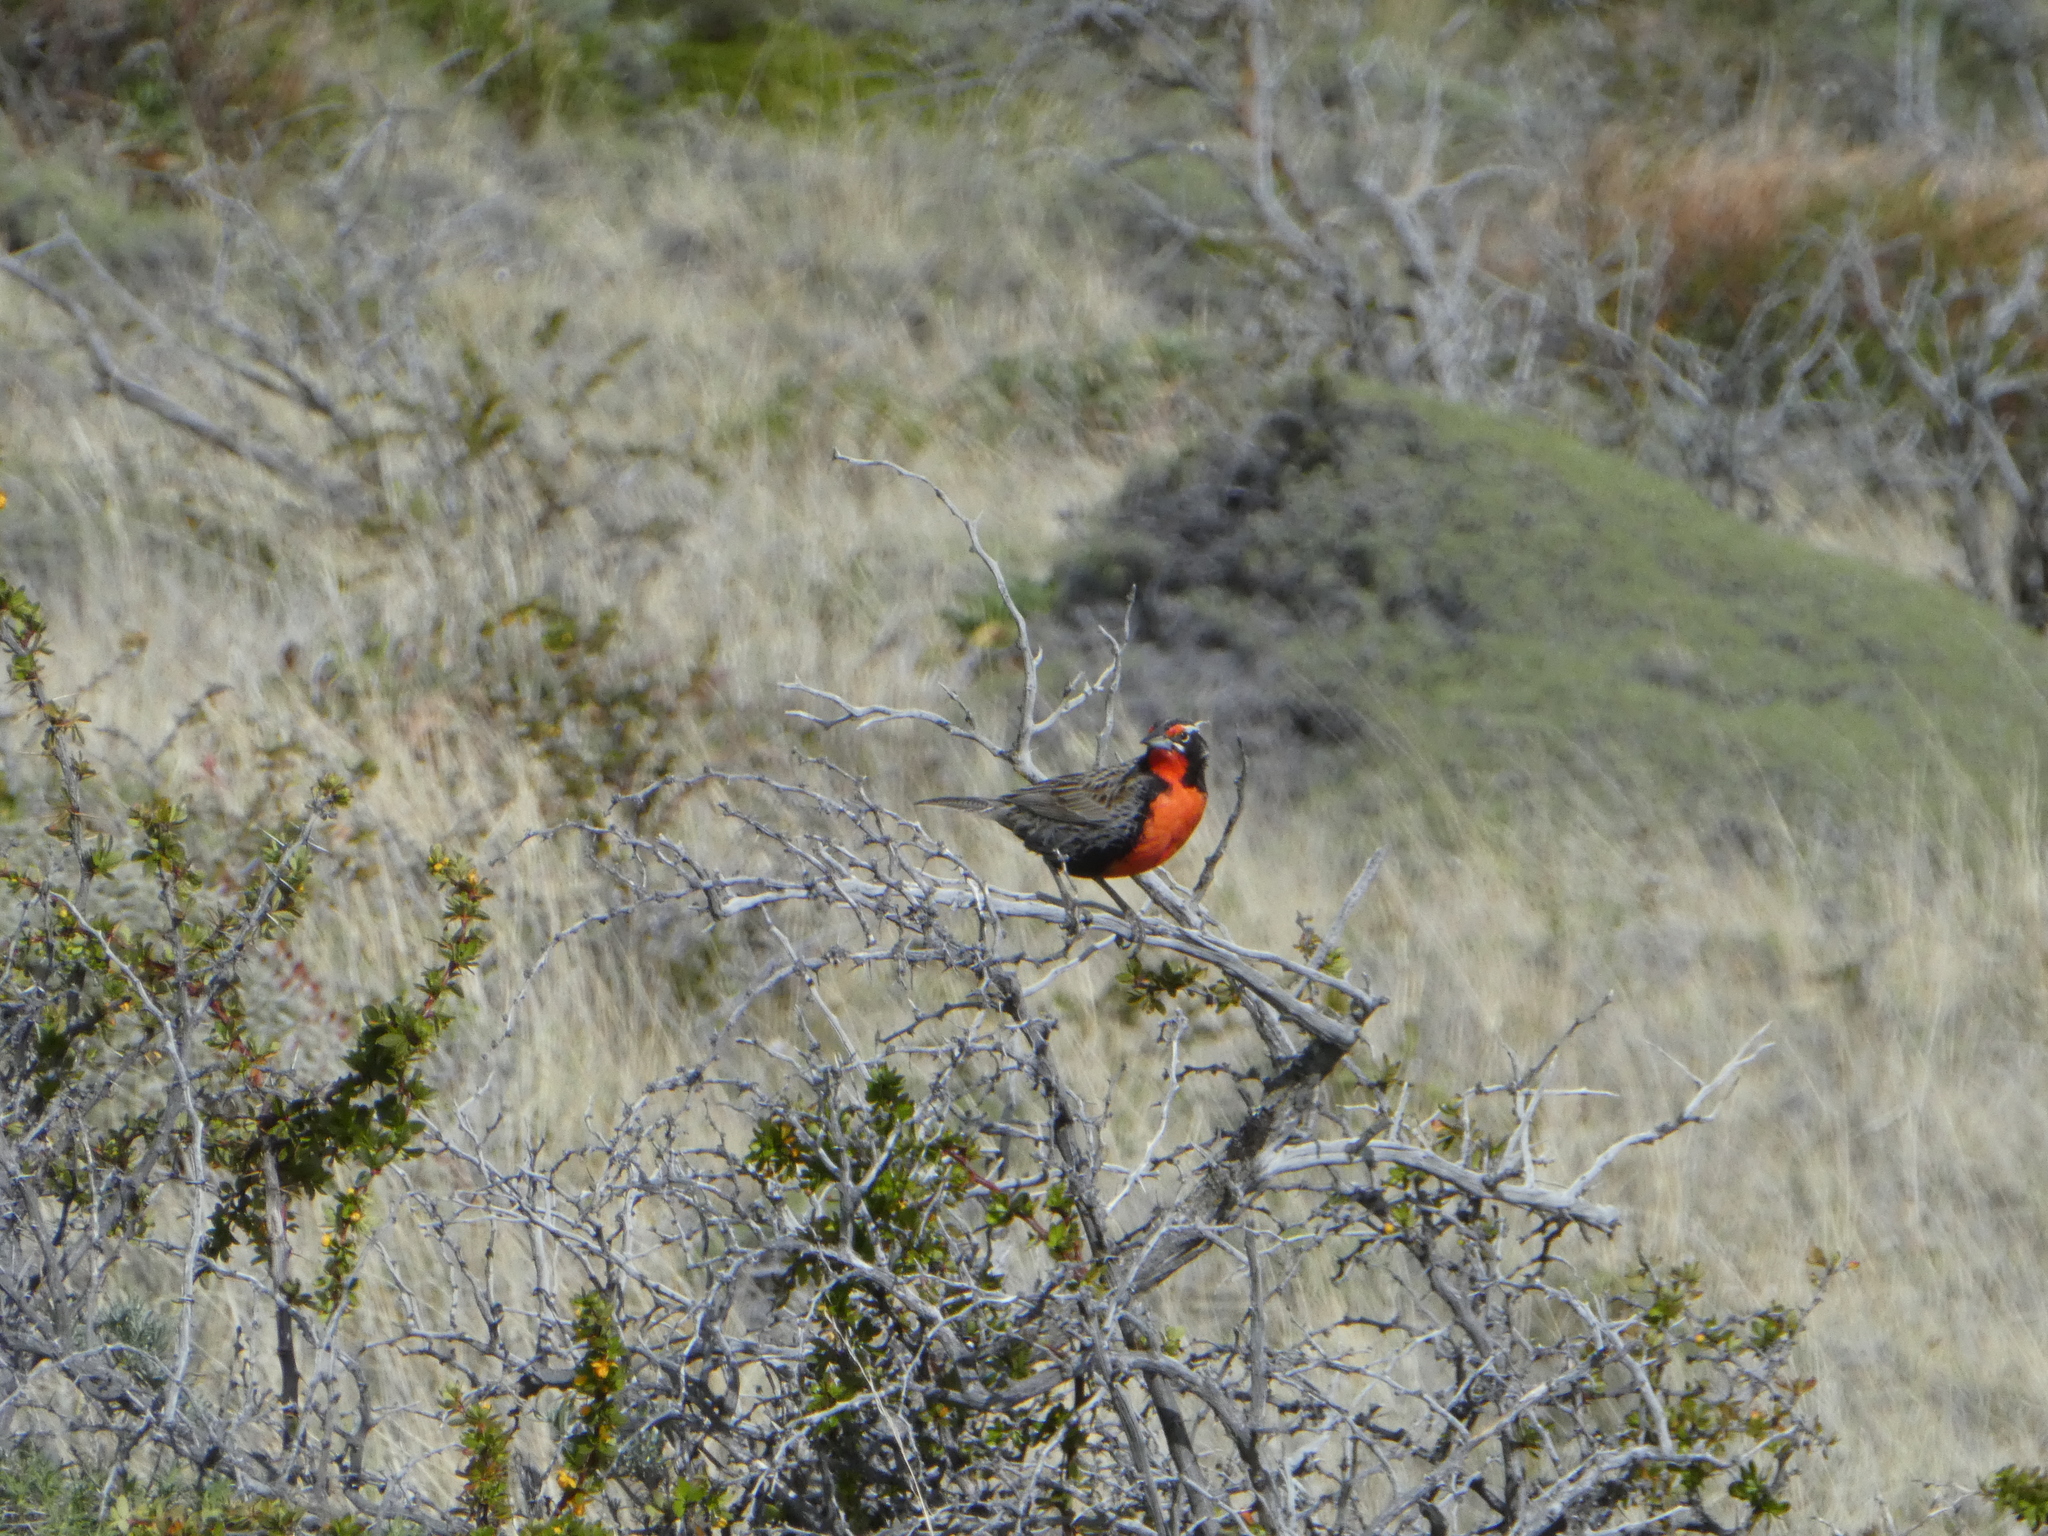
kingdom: Animalia
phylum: Chordata
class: Aves
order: Passeriformes
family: Icteridae
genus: Sturnella
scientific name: Sturnella loyca
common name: Long-tailed meadowlark
